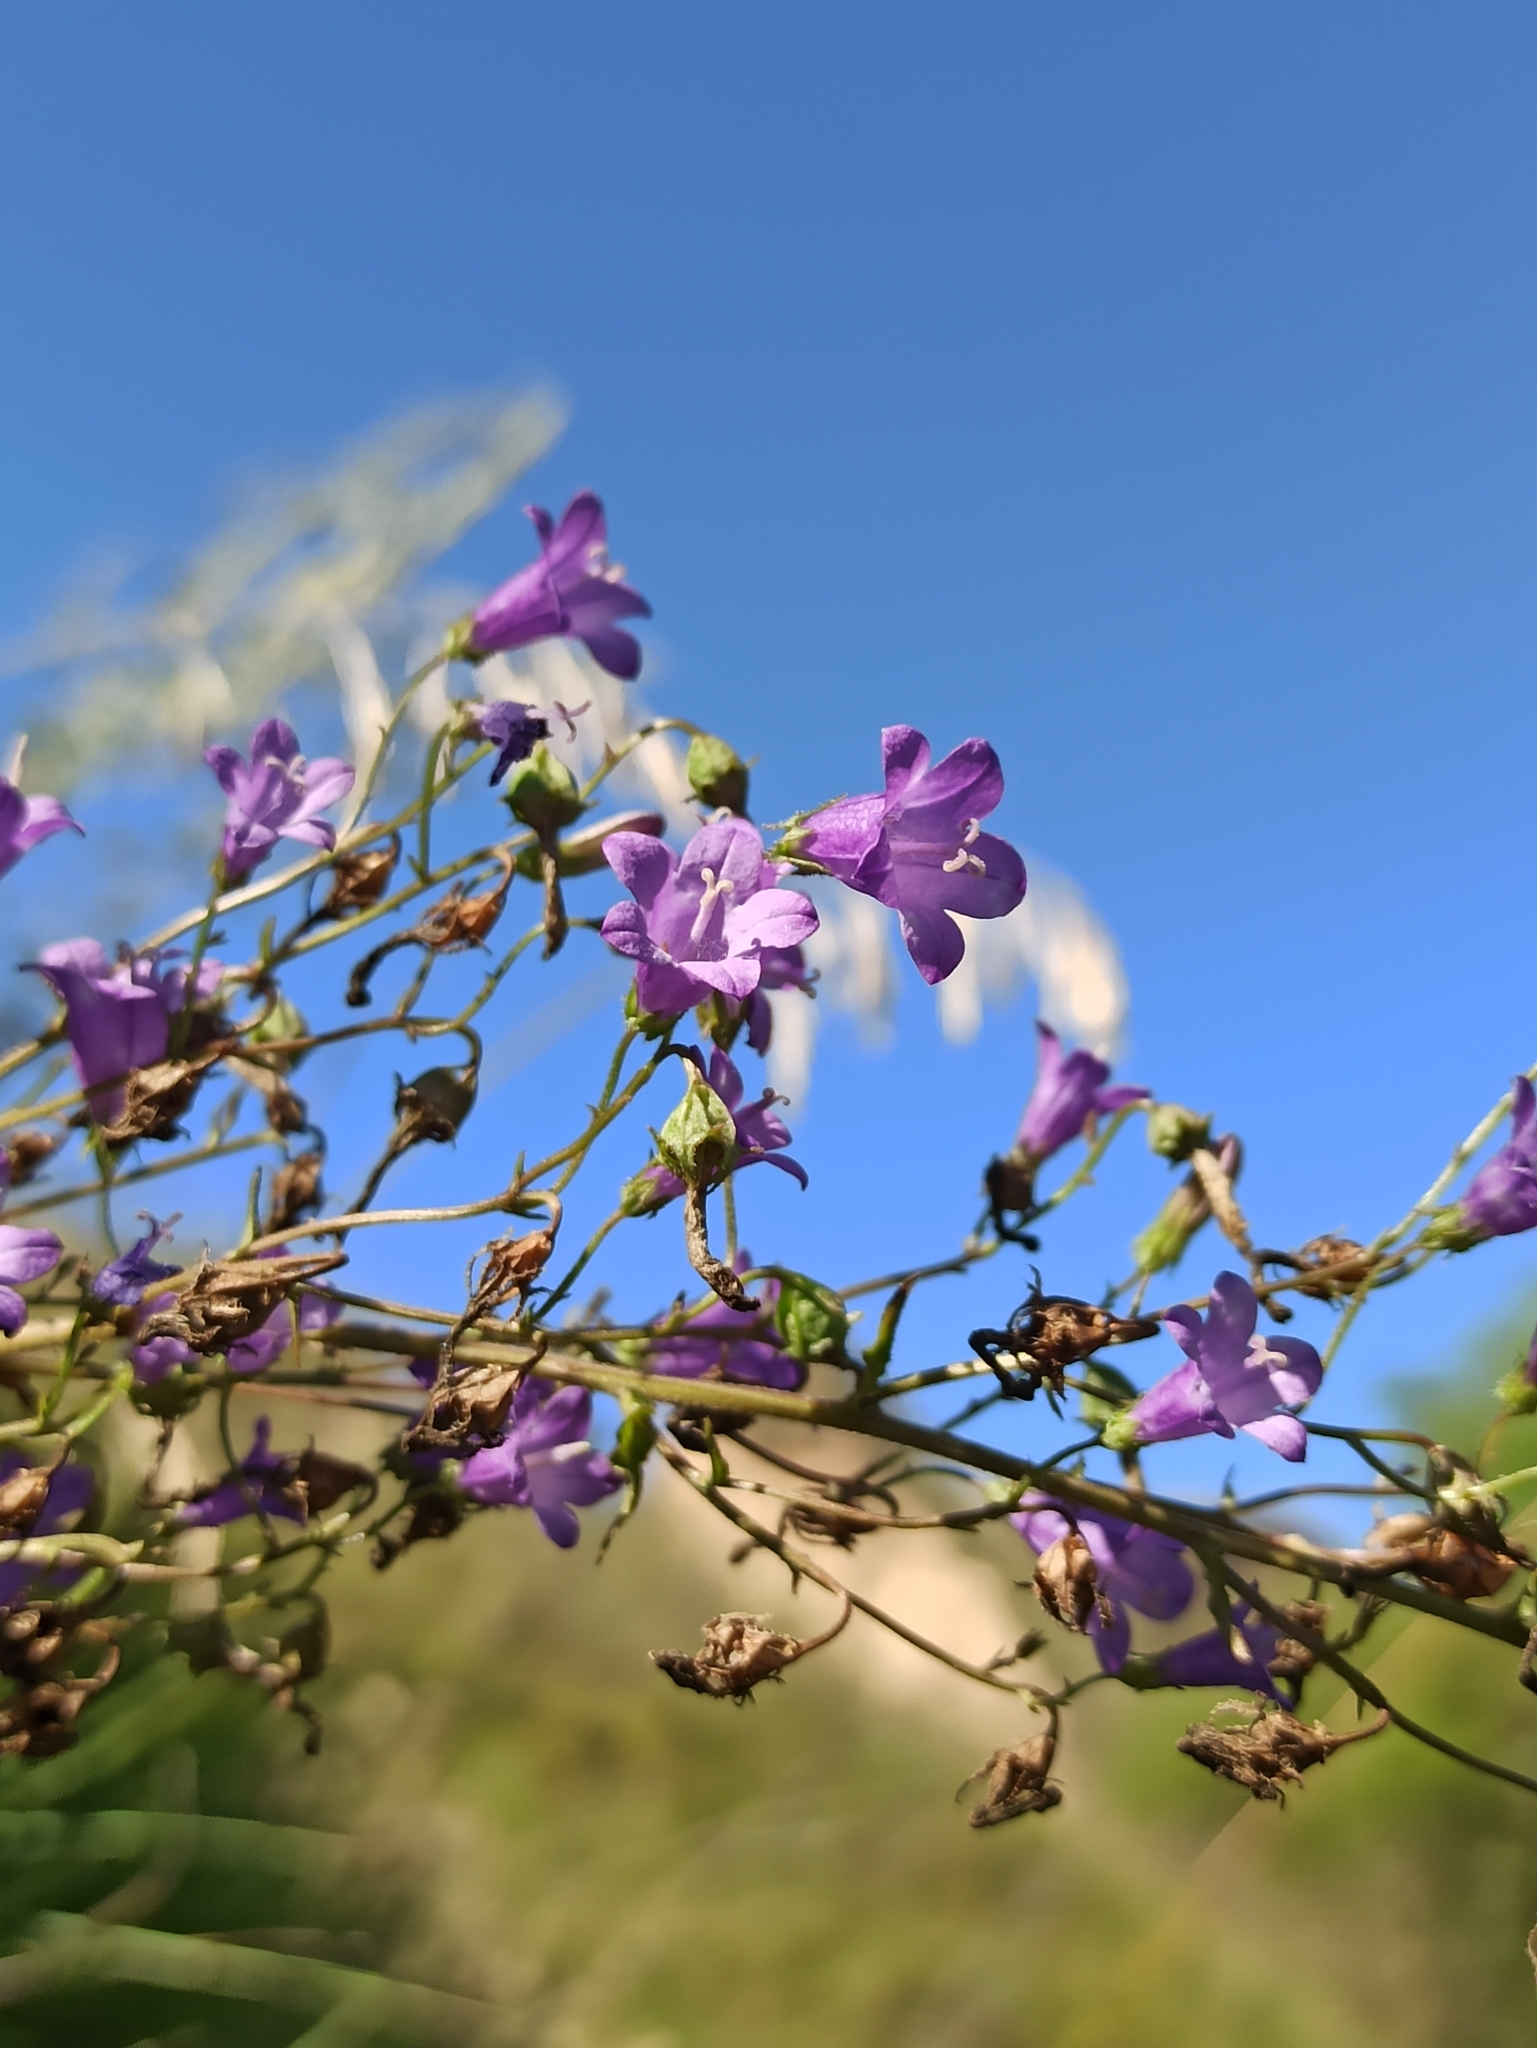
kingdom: Plantae
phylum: Tracheophyta
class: Magnoliopsida
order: Asterales
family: Campanulaceae
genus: Campanula
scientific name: Campanula sibirica
